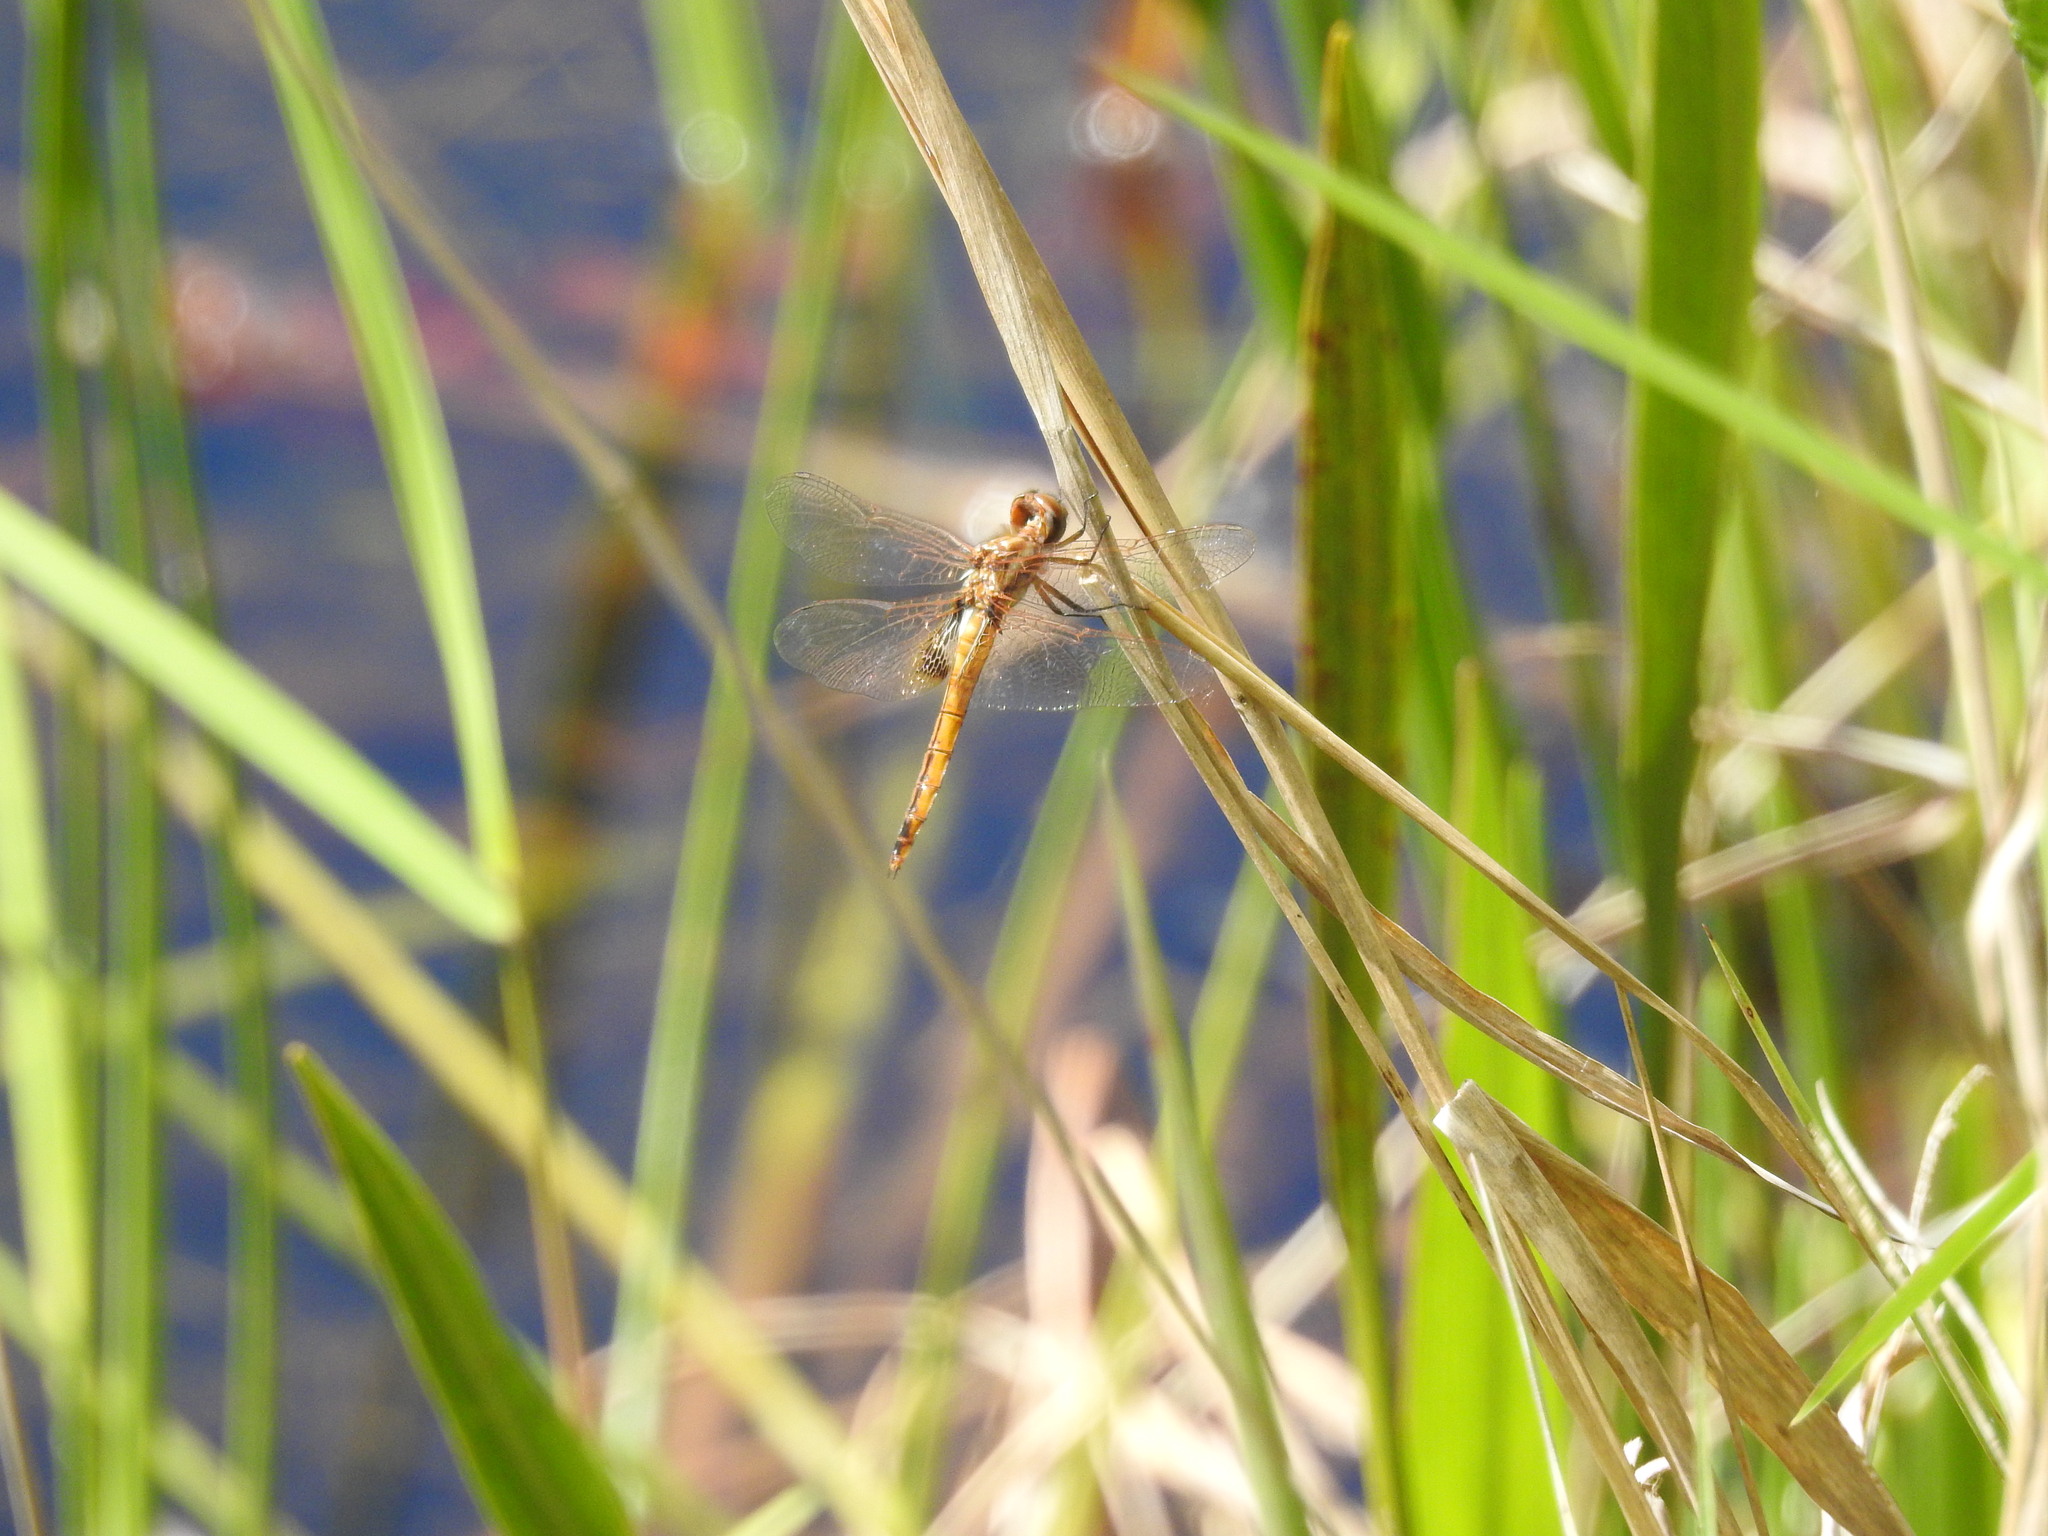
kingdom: Animalia
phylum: Arthropoda
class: Insecta
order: Odonata
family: Libellulidae
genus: Miathyria
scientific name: Miathyria marcella
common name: Hyacinth glider
